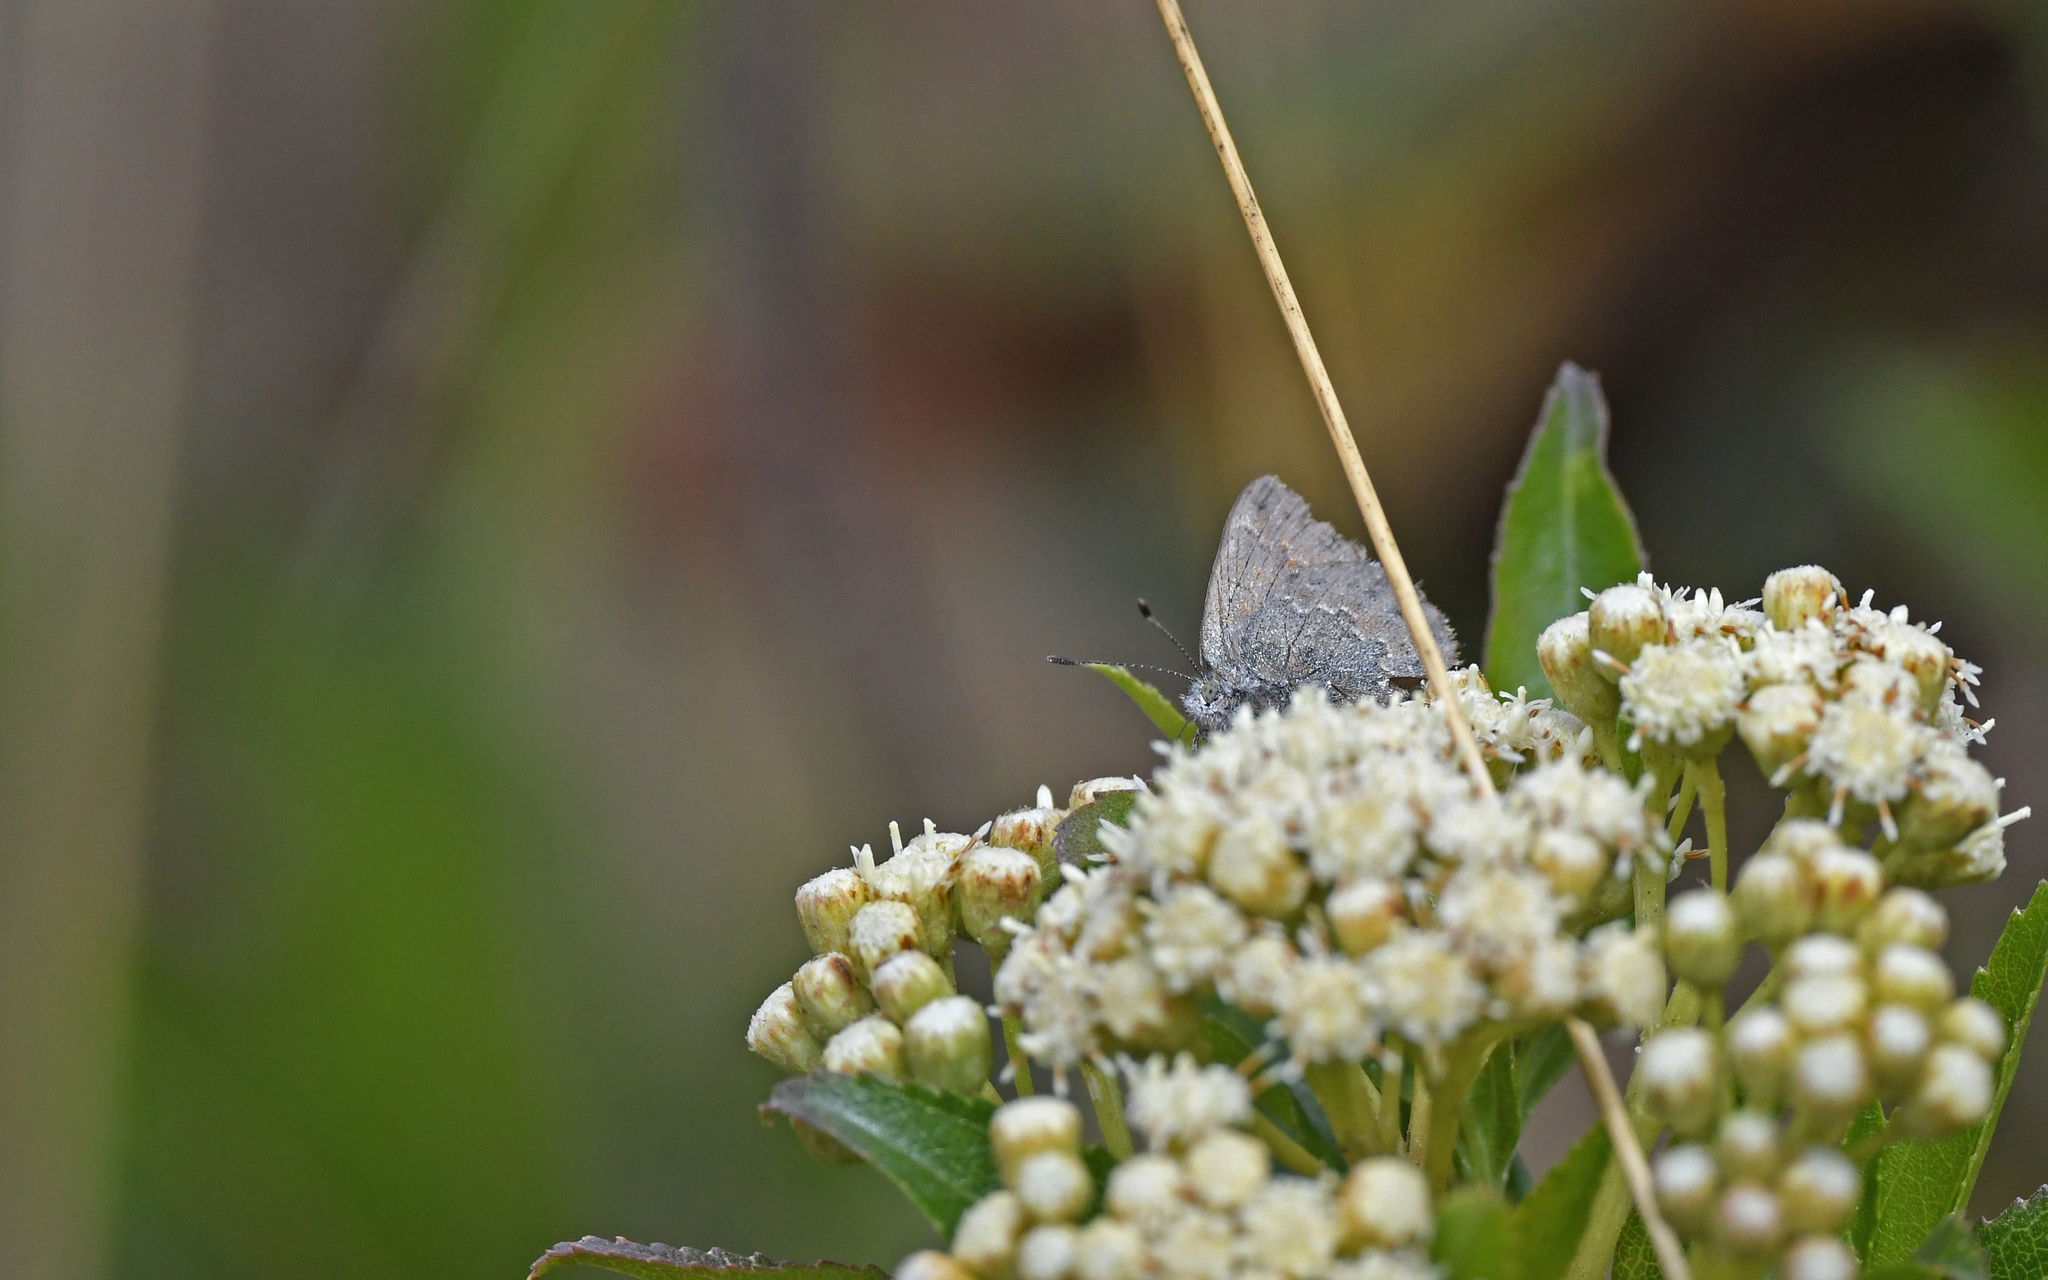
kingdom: Animalia
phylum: Arthropoda
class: Insecta
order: Lepidoptera
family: Lycaenidae
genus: Penaincisalia
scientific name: Penaincisalia culminicola
